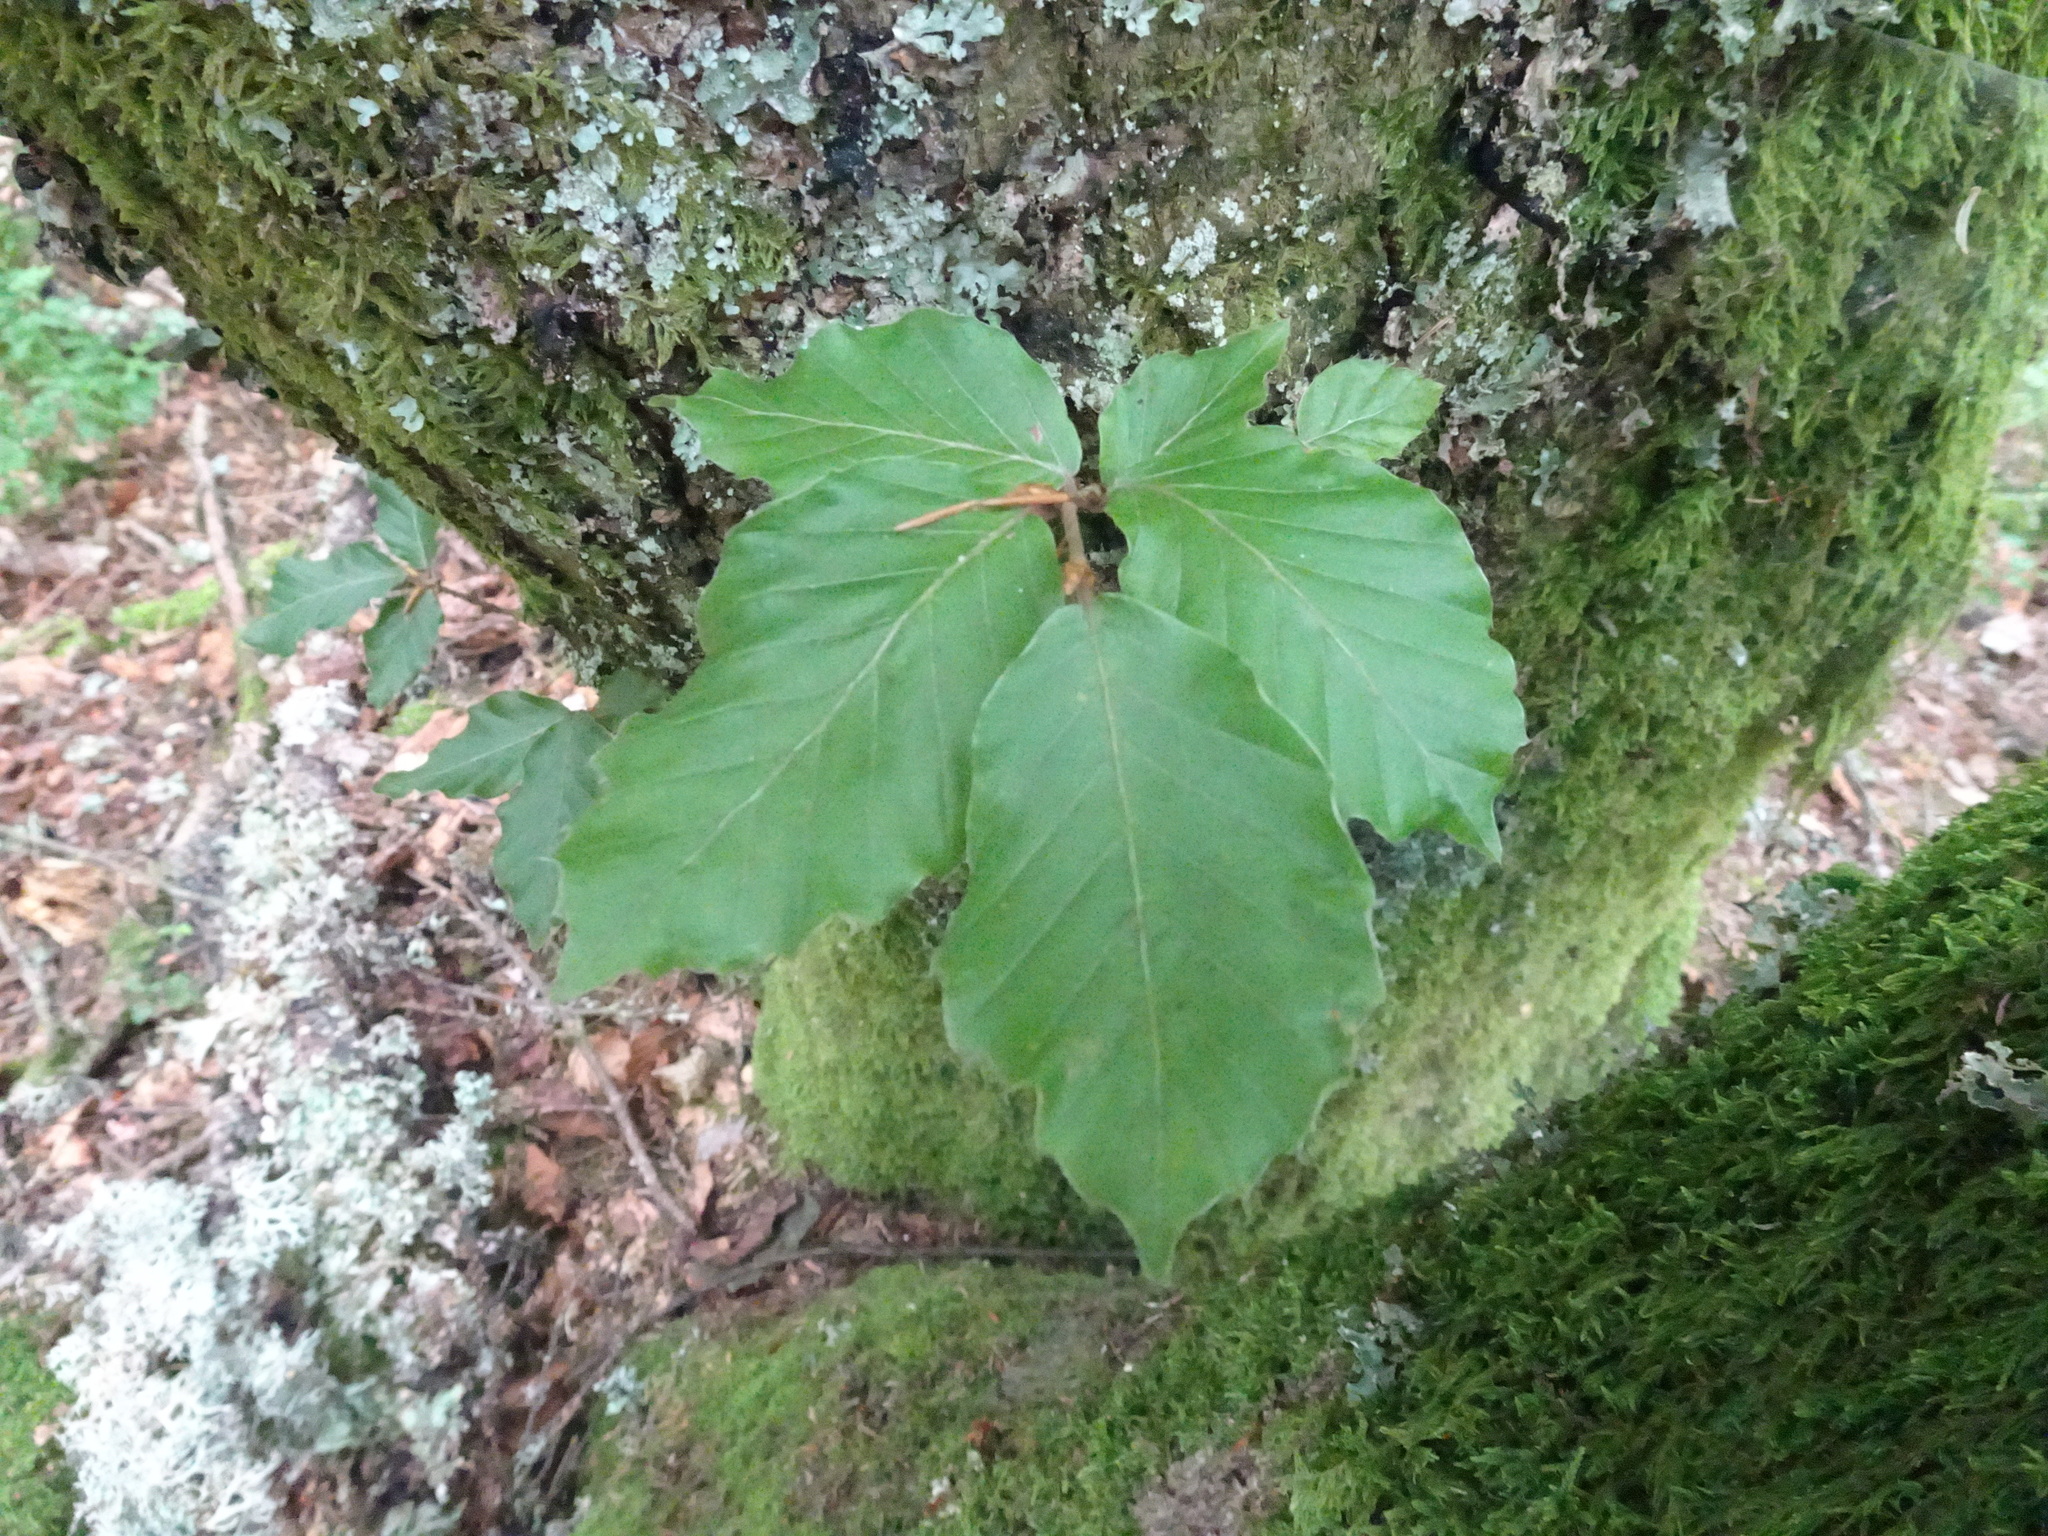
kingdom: Plantae
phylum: Tracheophyta
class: Magnoliopsida
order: Fagales
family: Fagaceae
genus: Fagus
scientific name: Fagus sylvatica
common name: Beech
